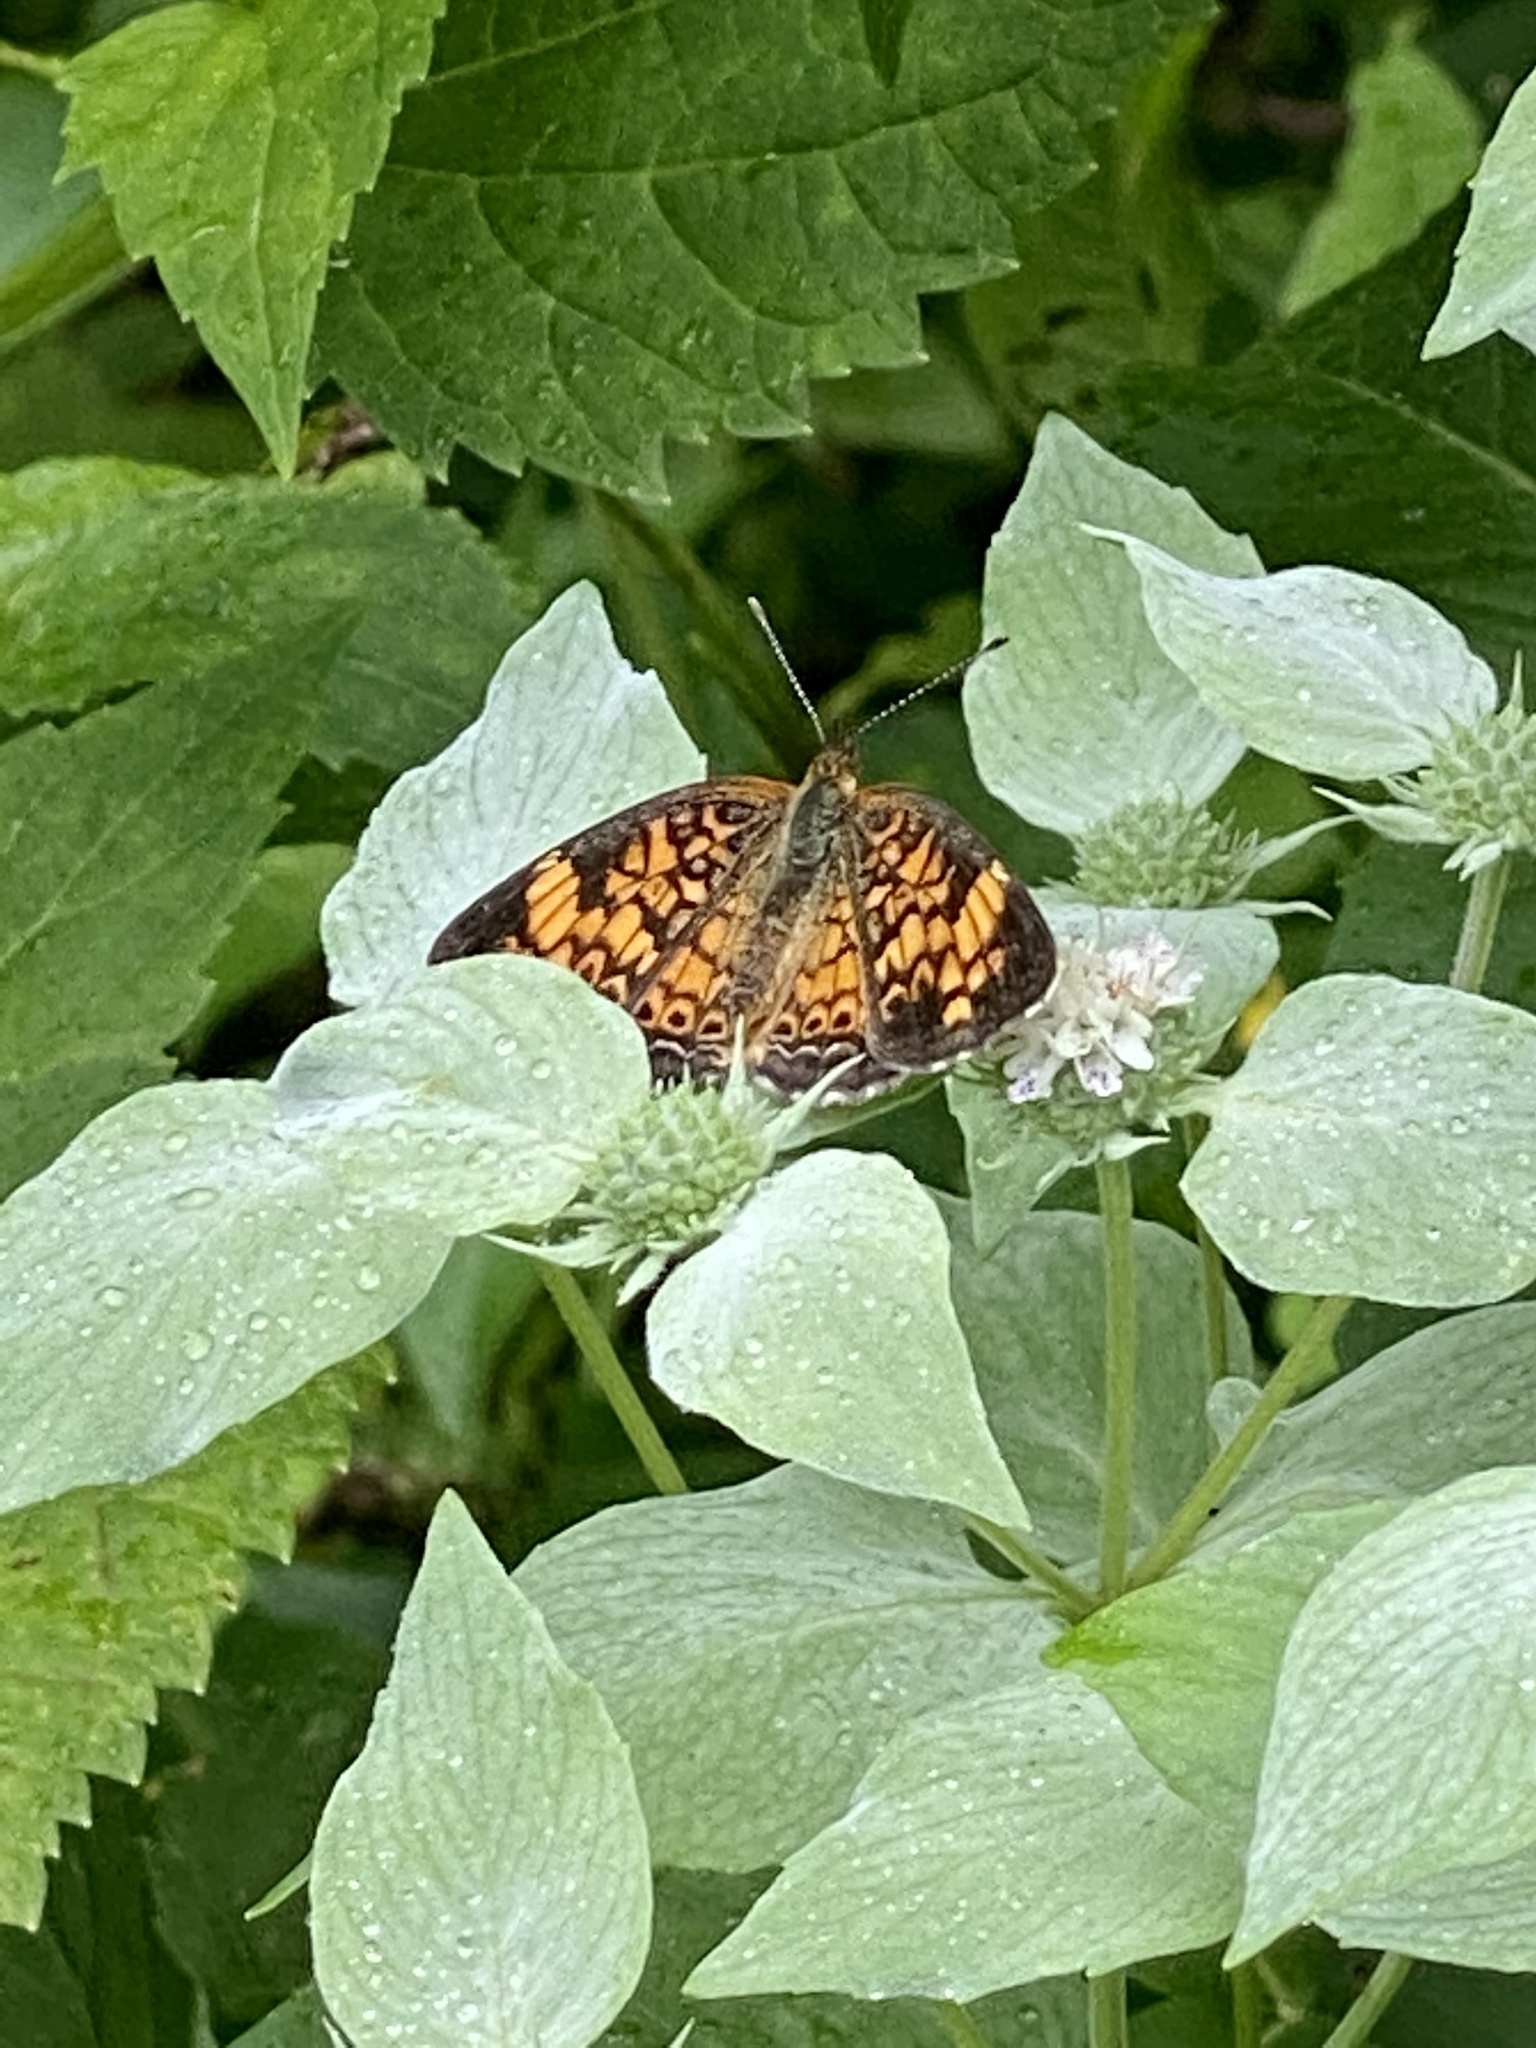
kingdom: Animalia
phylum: Arthropoda
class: Insecta
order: Lepidoptera
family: Nymphalidae
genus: Phyciodes
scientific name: Phyciodes tharos
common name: Pearl crescent
